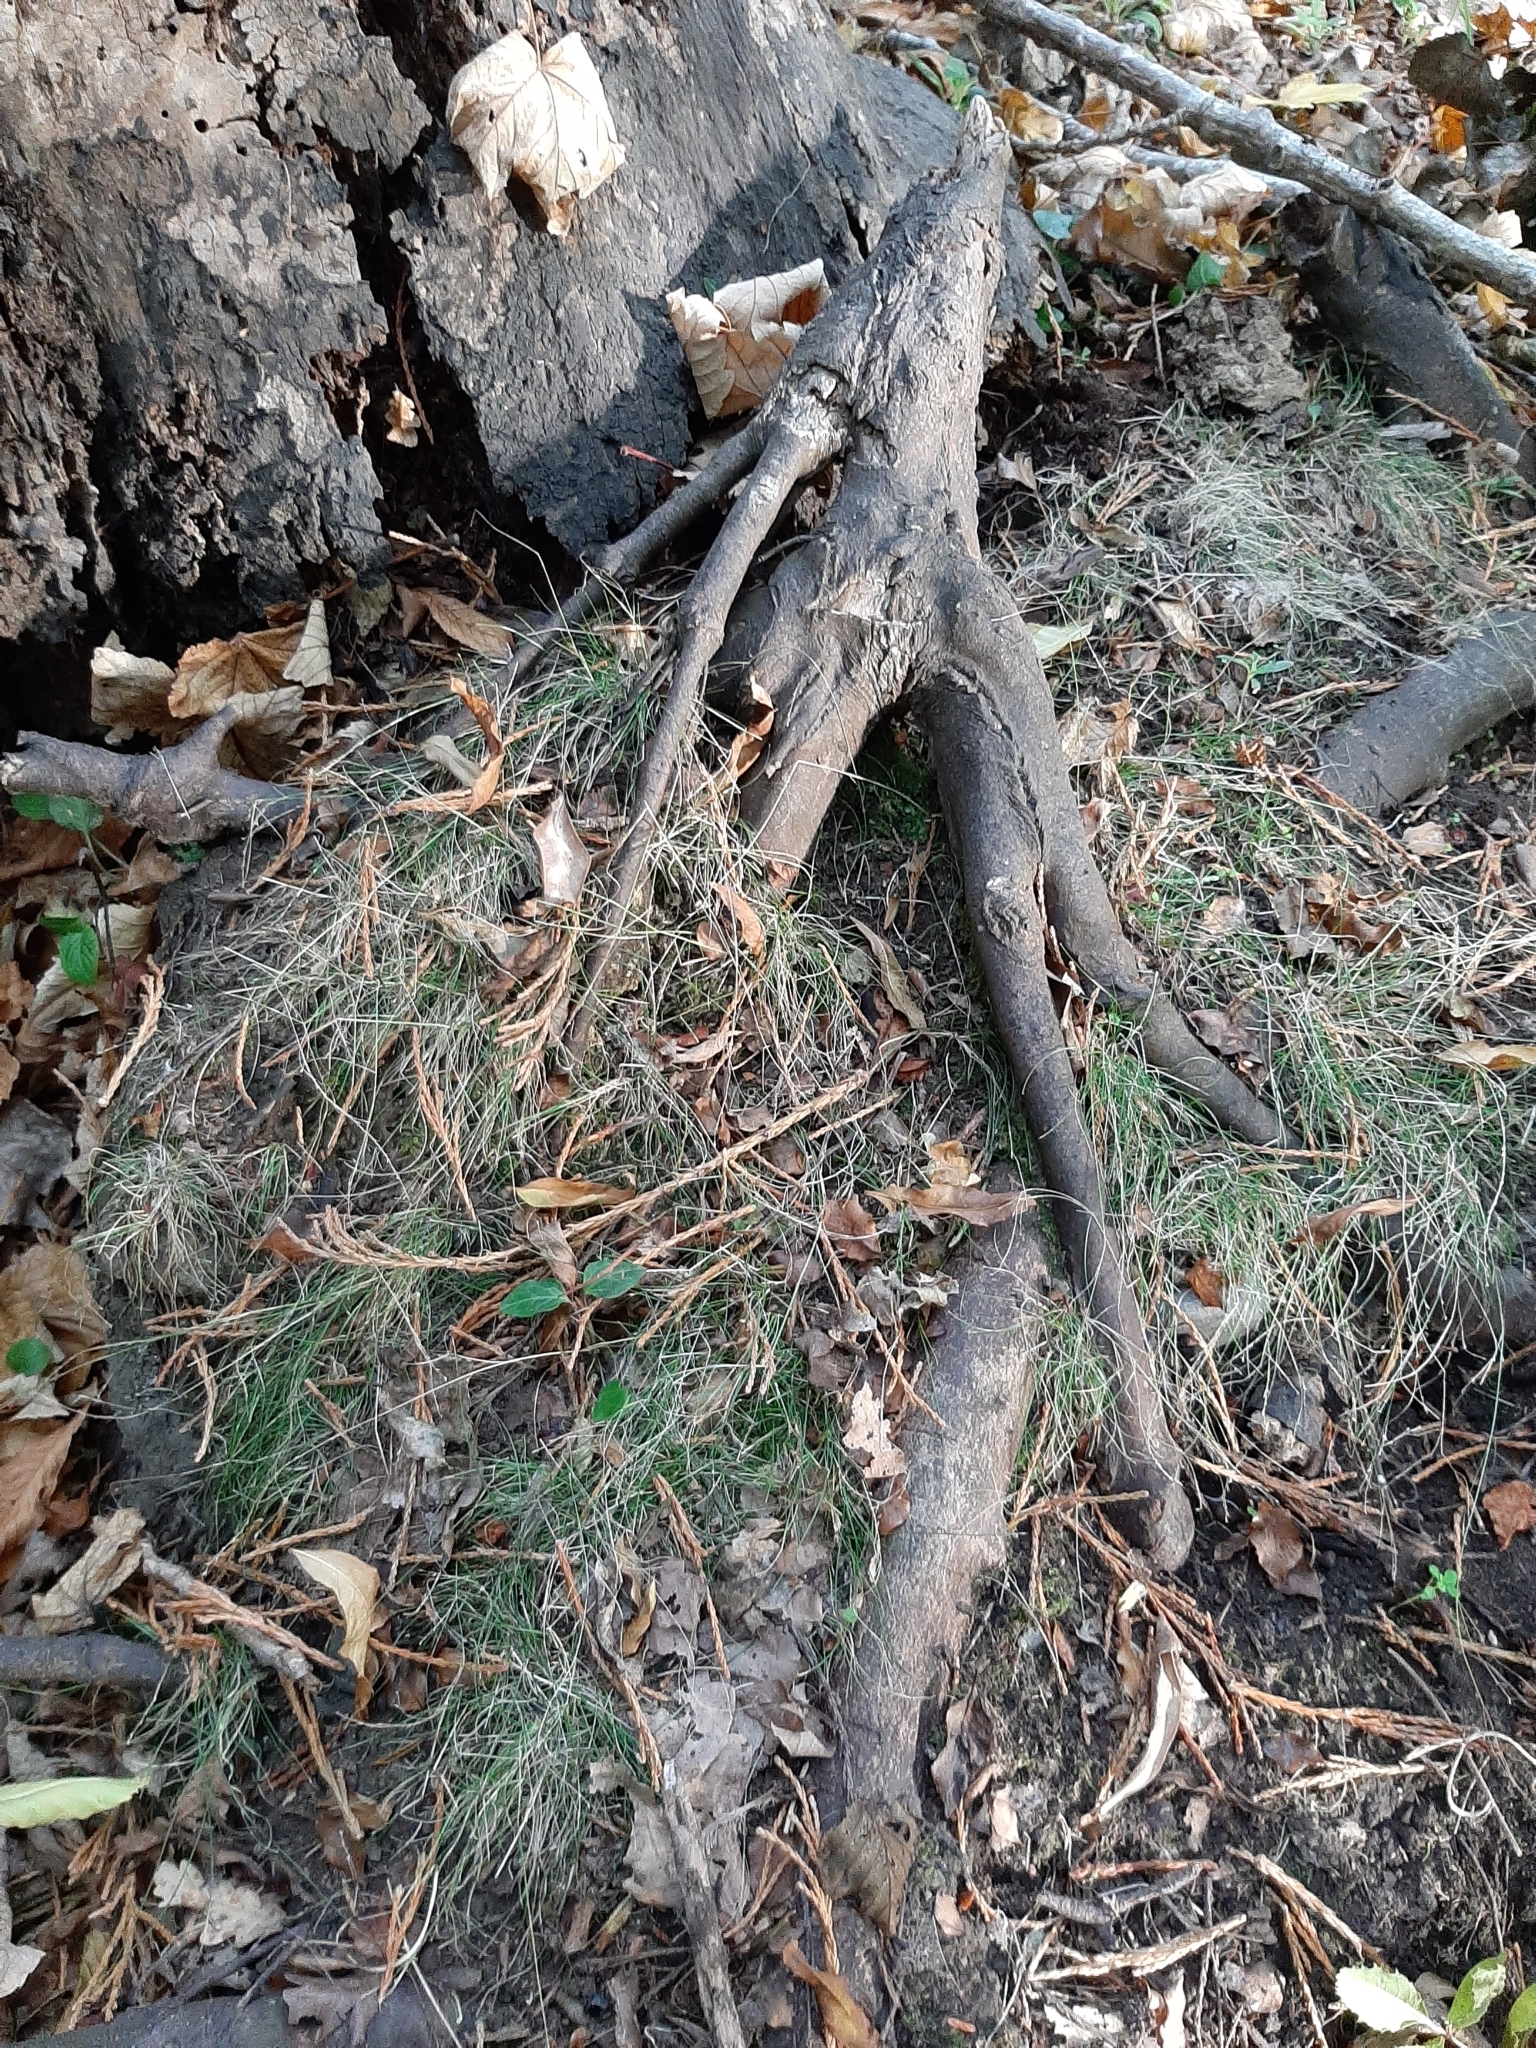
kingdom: Plantae
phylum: Tracheophyta
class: Liliopsida
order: Poales
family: Poaceae
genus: Poa
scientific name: Poa imbecilla
